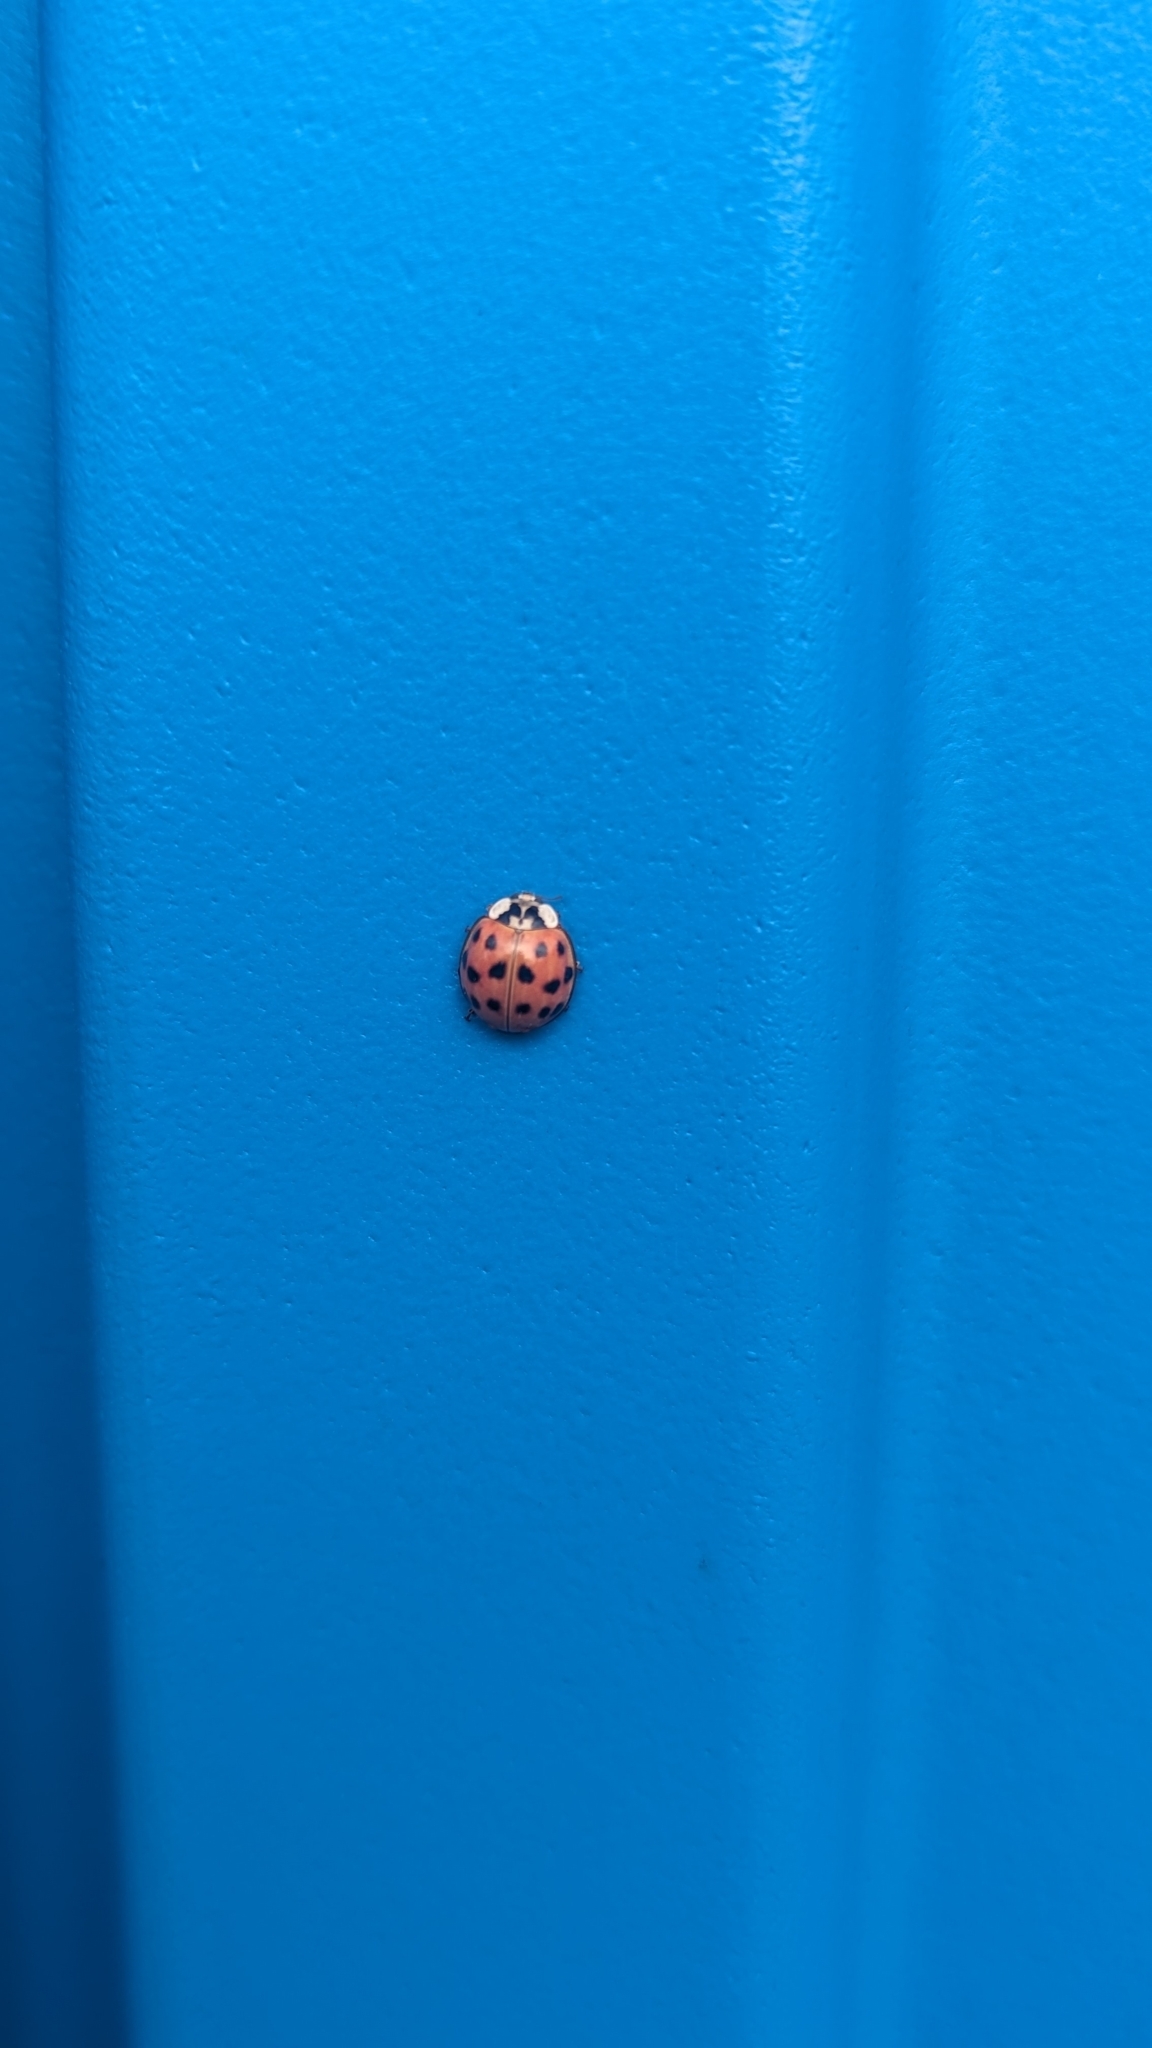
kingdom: Animalia
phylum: Arthropoda
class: Insecta
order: Coleoptera
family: Coccinellidae
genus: Harmonia
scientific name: Harmonia axyridis
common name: Harlequin ladybird
